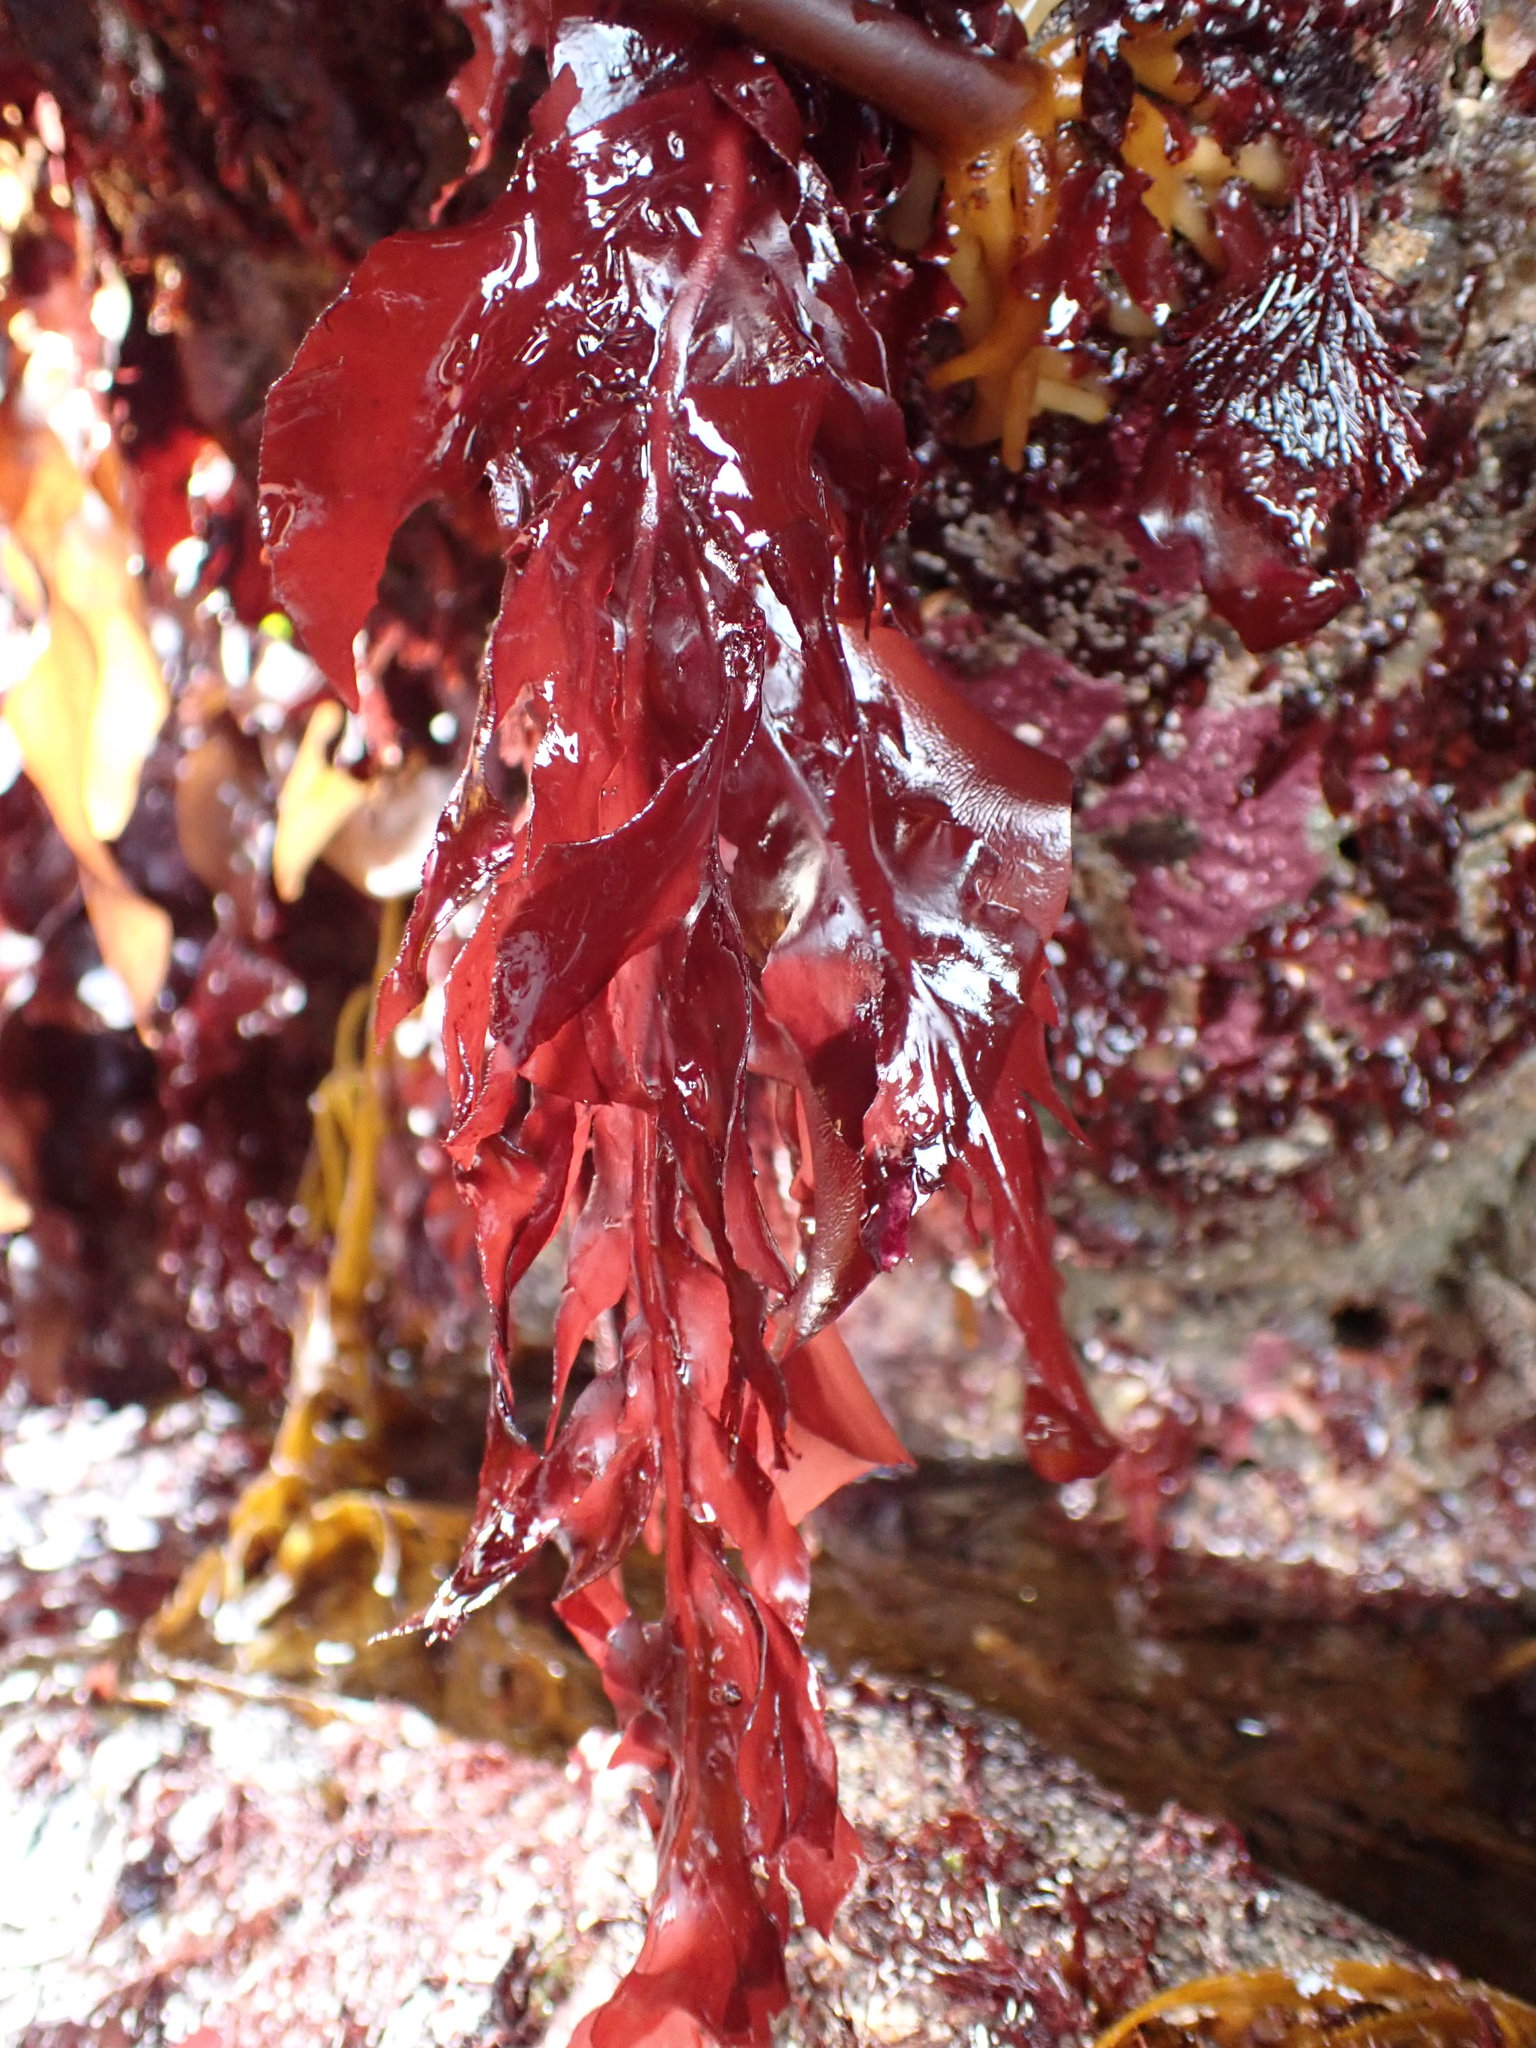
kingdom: Plantae
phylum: Rhodophyta
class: Florideophyceae
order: Gigartinales
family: Kallymeniaceae
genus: Erythrophyllum
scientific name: Erythrophyllum delesserioides
